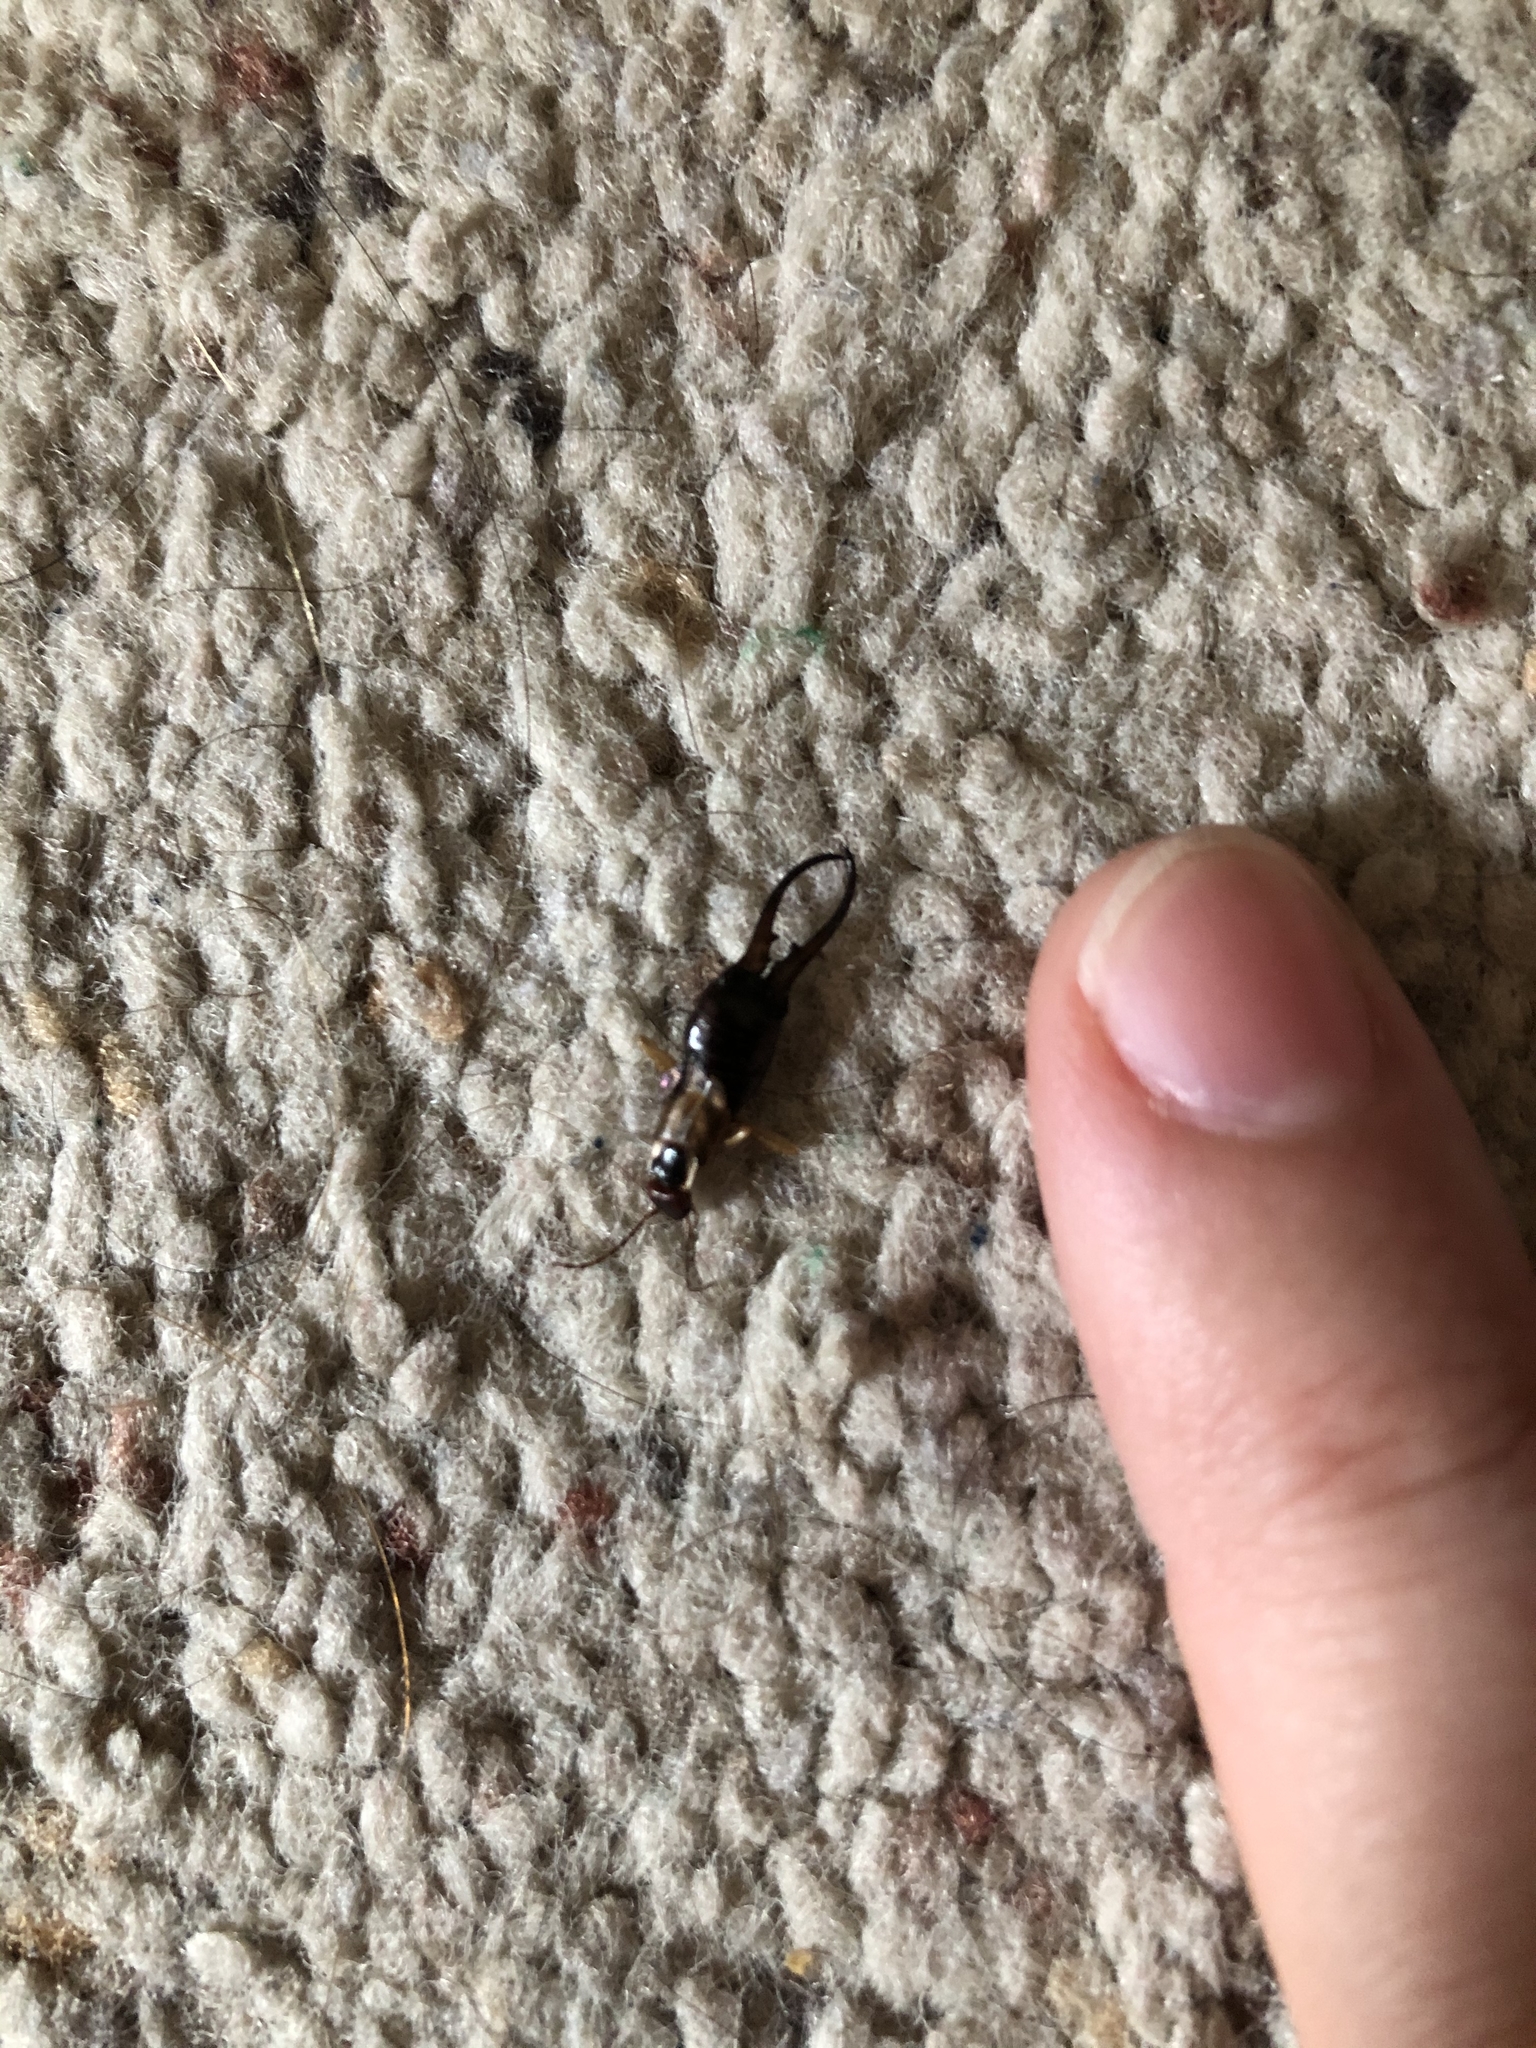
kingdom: Animalia
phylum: Arthropoda
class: Insecta
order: Dermaptera
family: Forficulidae
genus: Forficula
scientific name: Forficula
